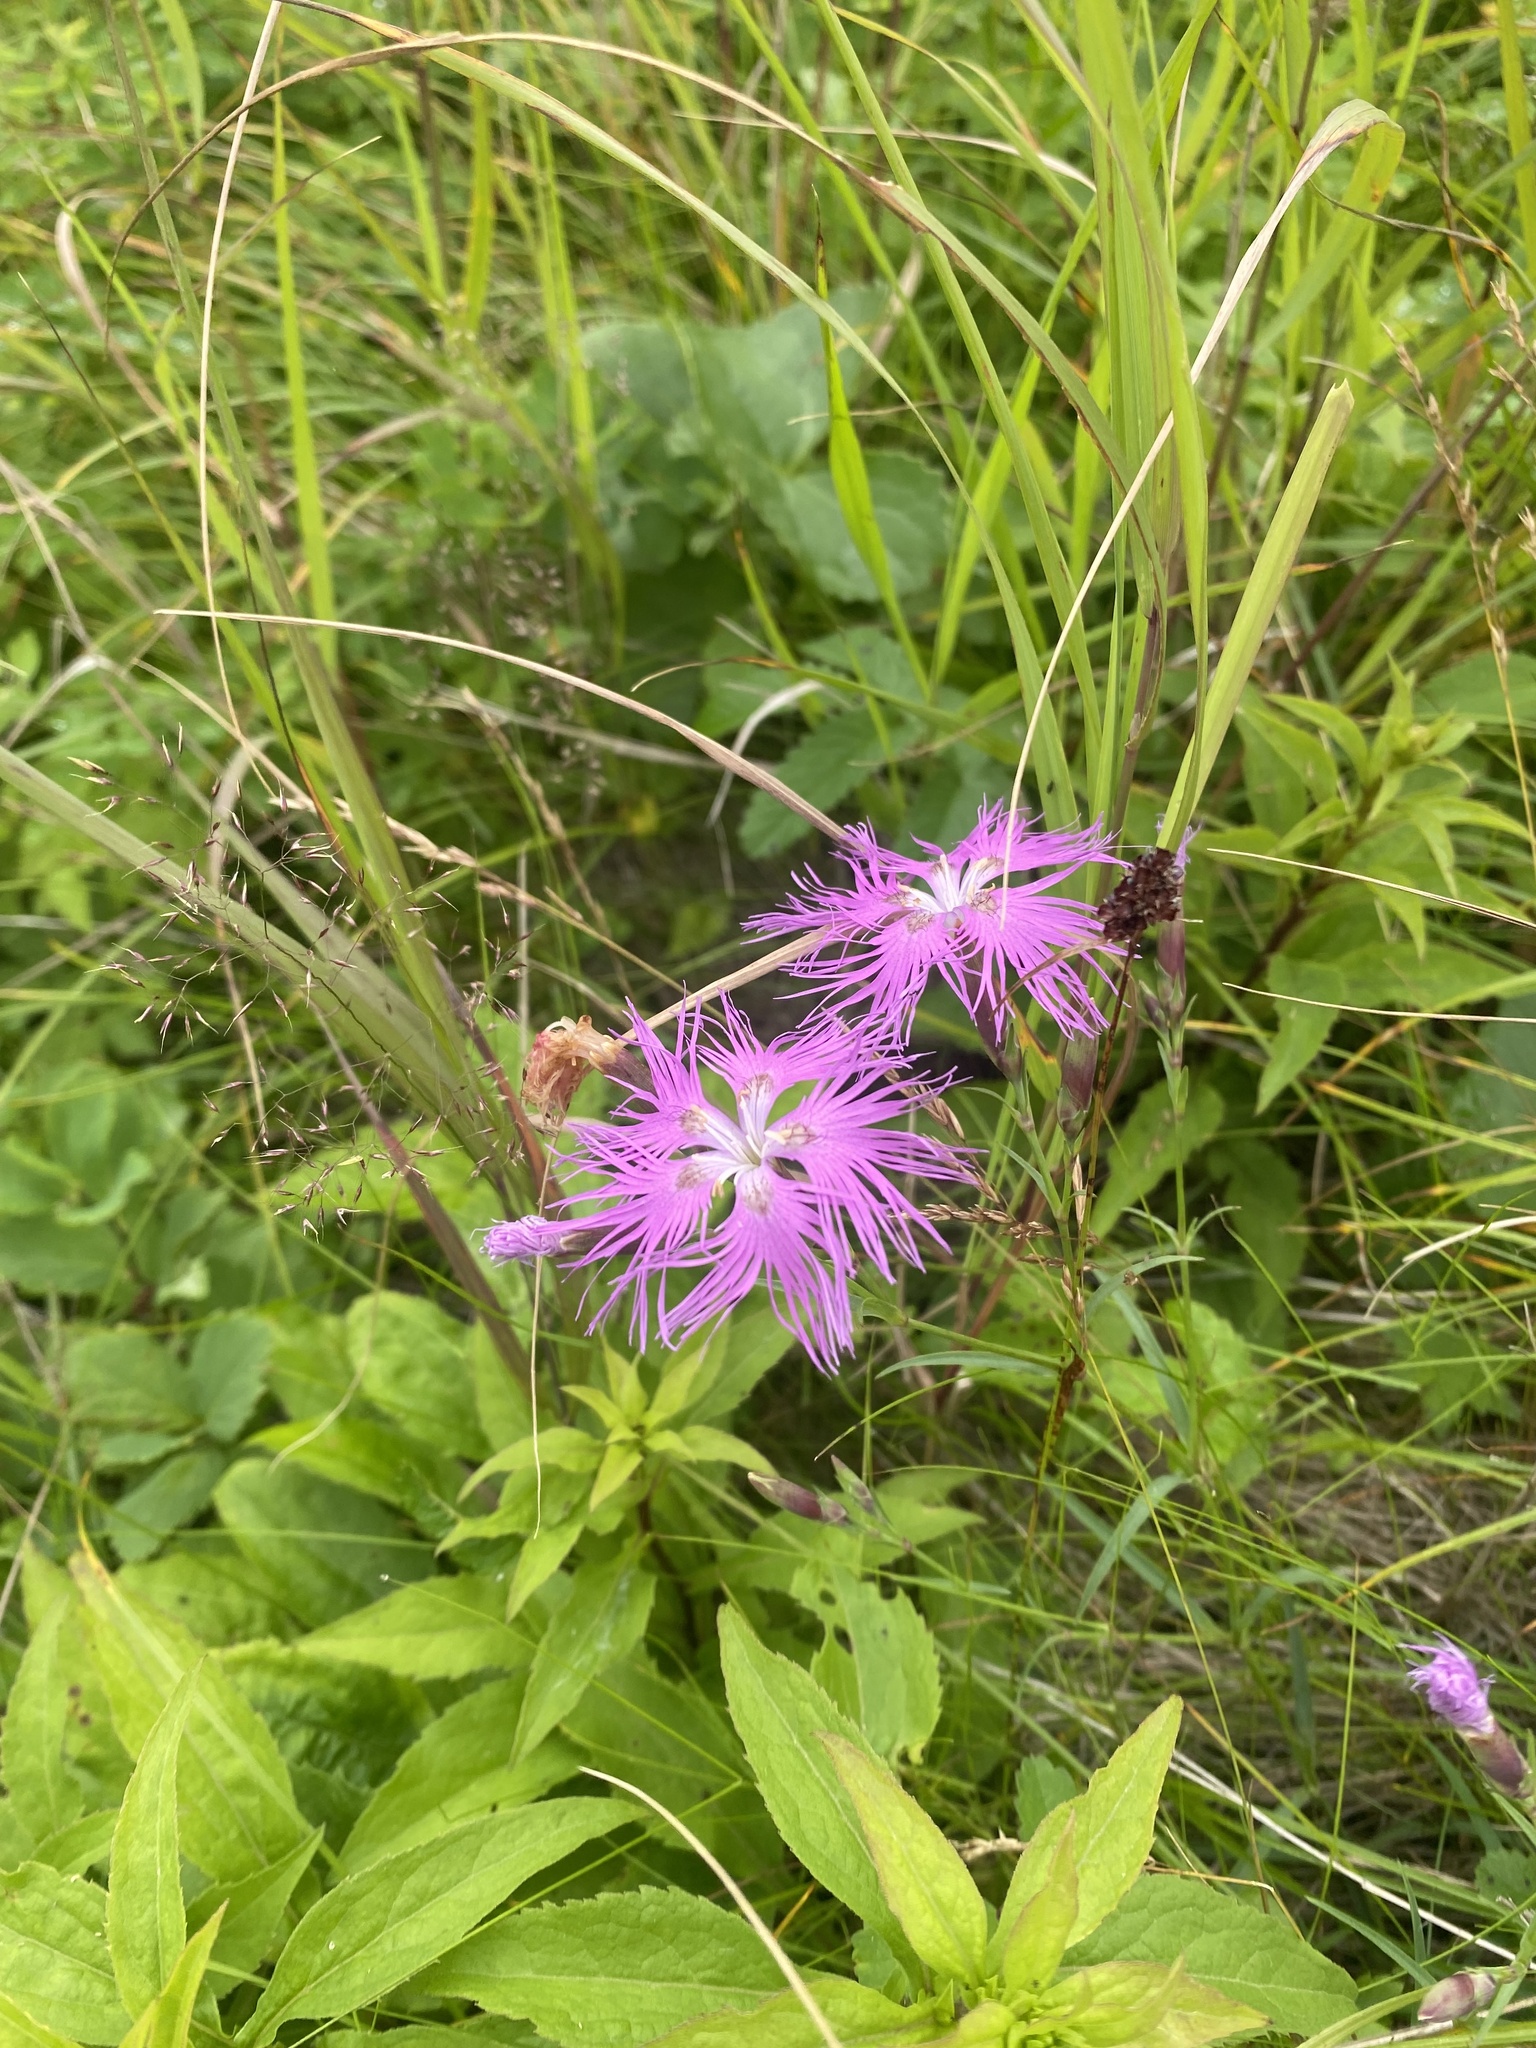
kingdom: Plantae
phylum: Tracheophyta
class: Magnoliopsida
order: Caryophyllales
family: Caryophyllaceae
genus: Dianthus
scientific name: Dianthus superbus
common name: Fringed pink
